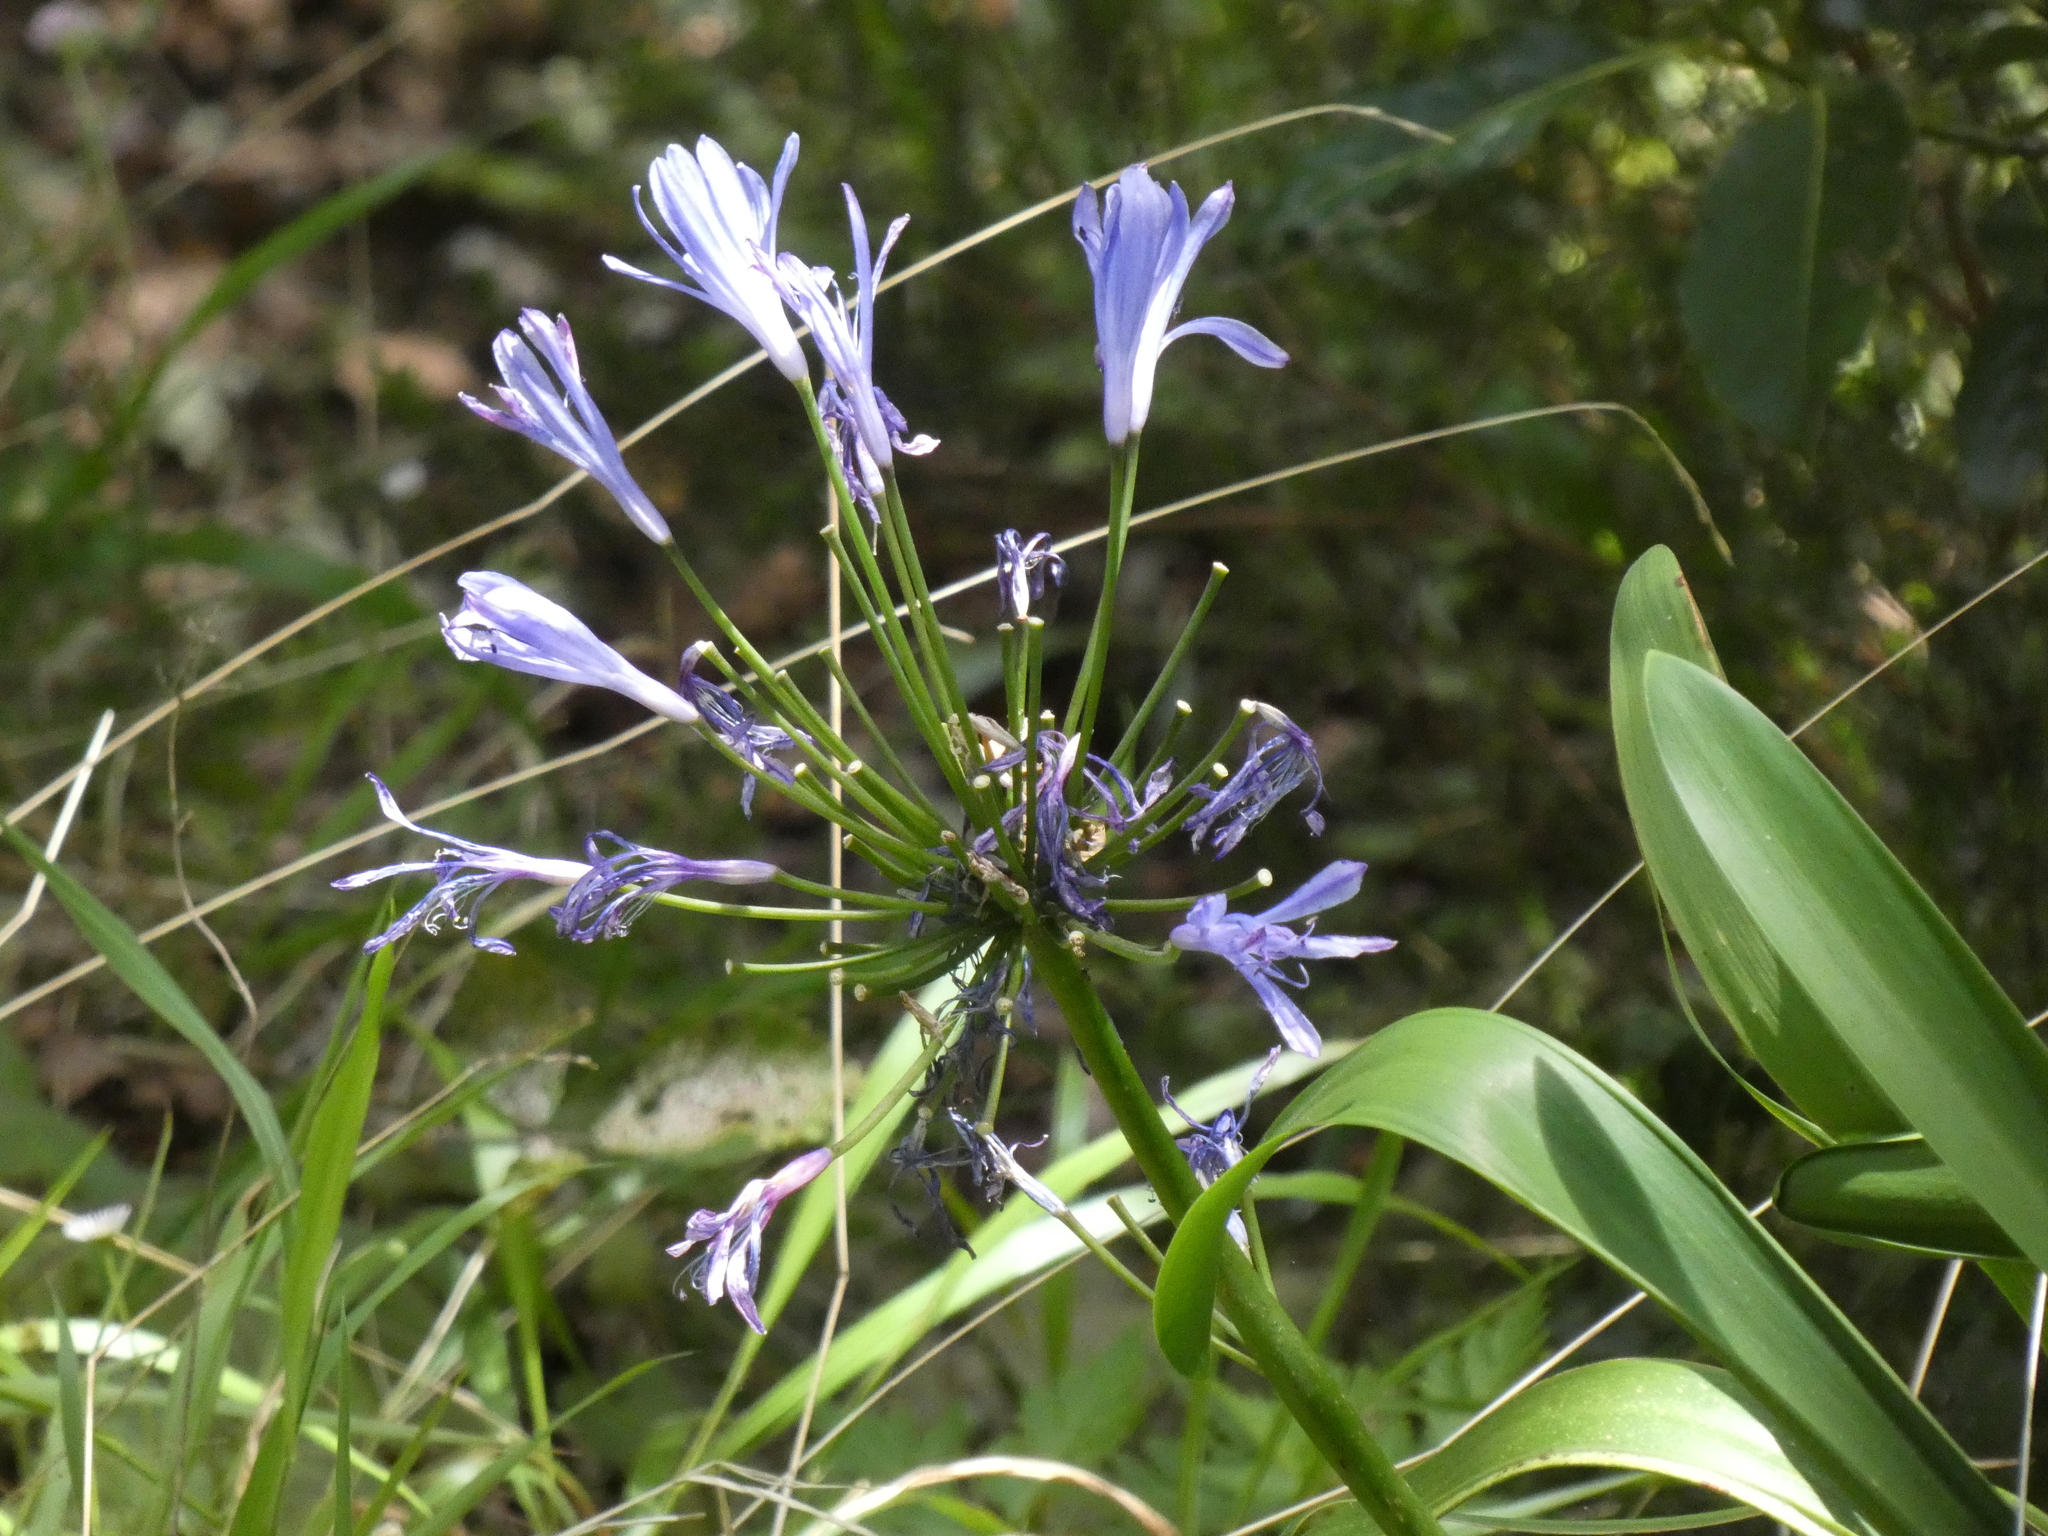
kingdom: Plantae
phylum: Tracheophyta
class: Liliopsida
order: Asparagales
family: Amaryllidaceae
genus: Agapanthus
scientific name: Agapanthus praecox
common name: African-lily
